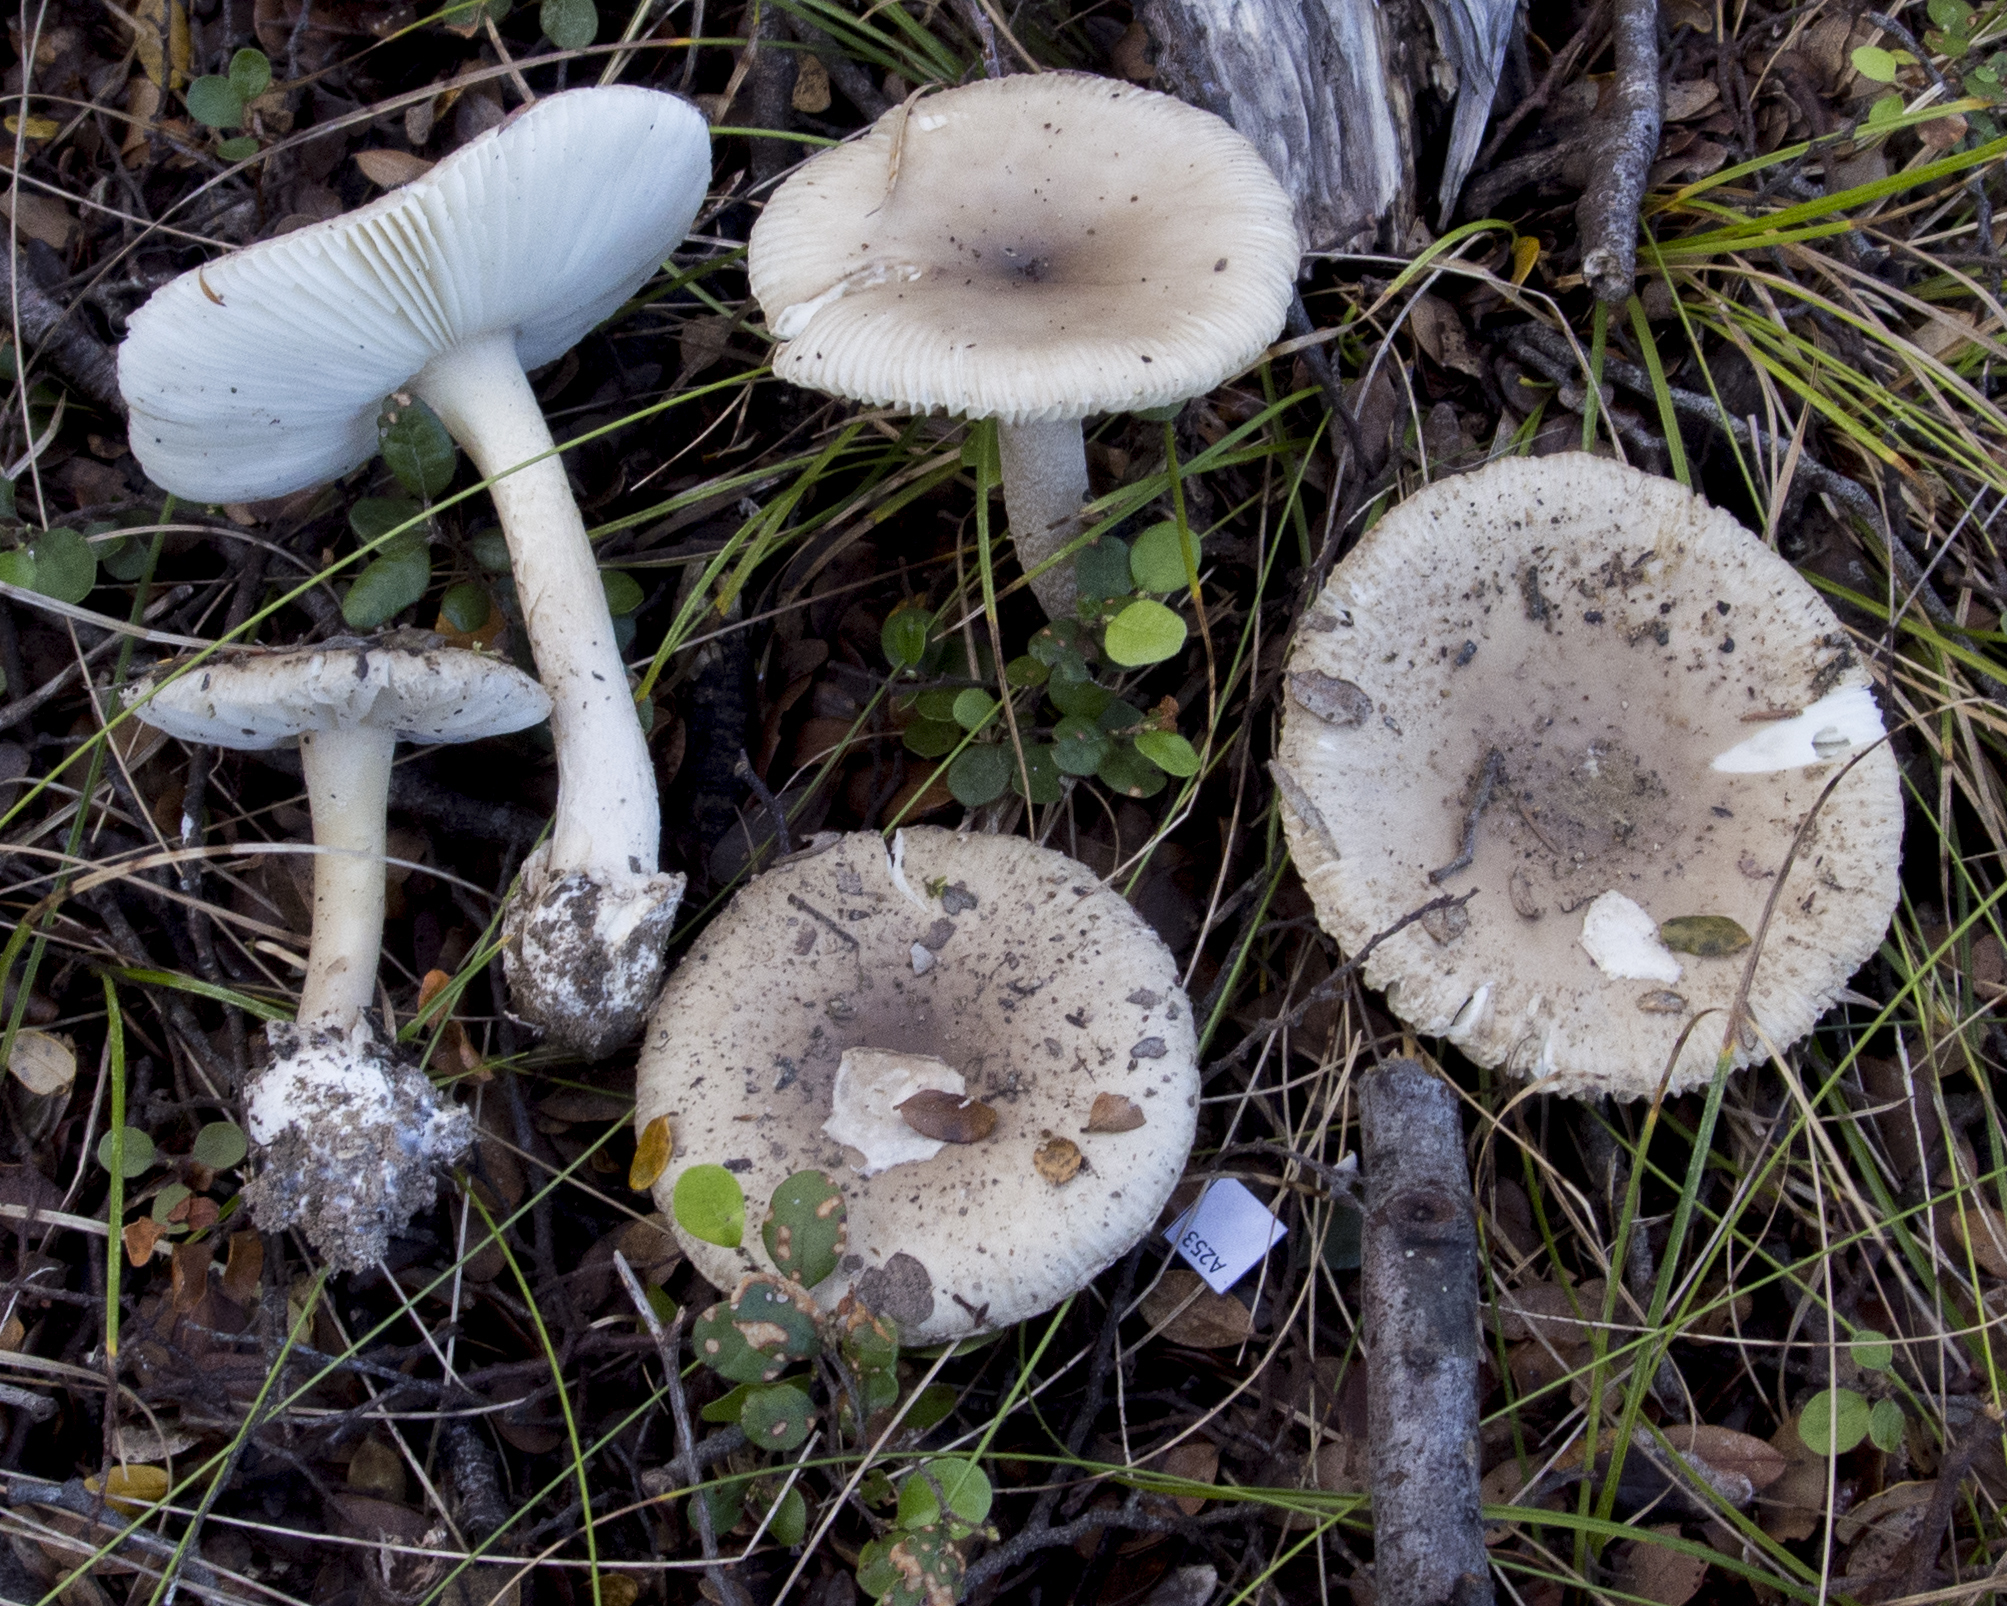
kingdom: Fungi
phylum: Basidiomycota
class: Agaricomycetes
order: Agaricales
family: Amanitaceae
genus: Amanita
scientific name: Amanita taiepa
